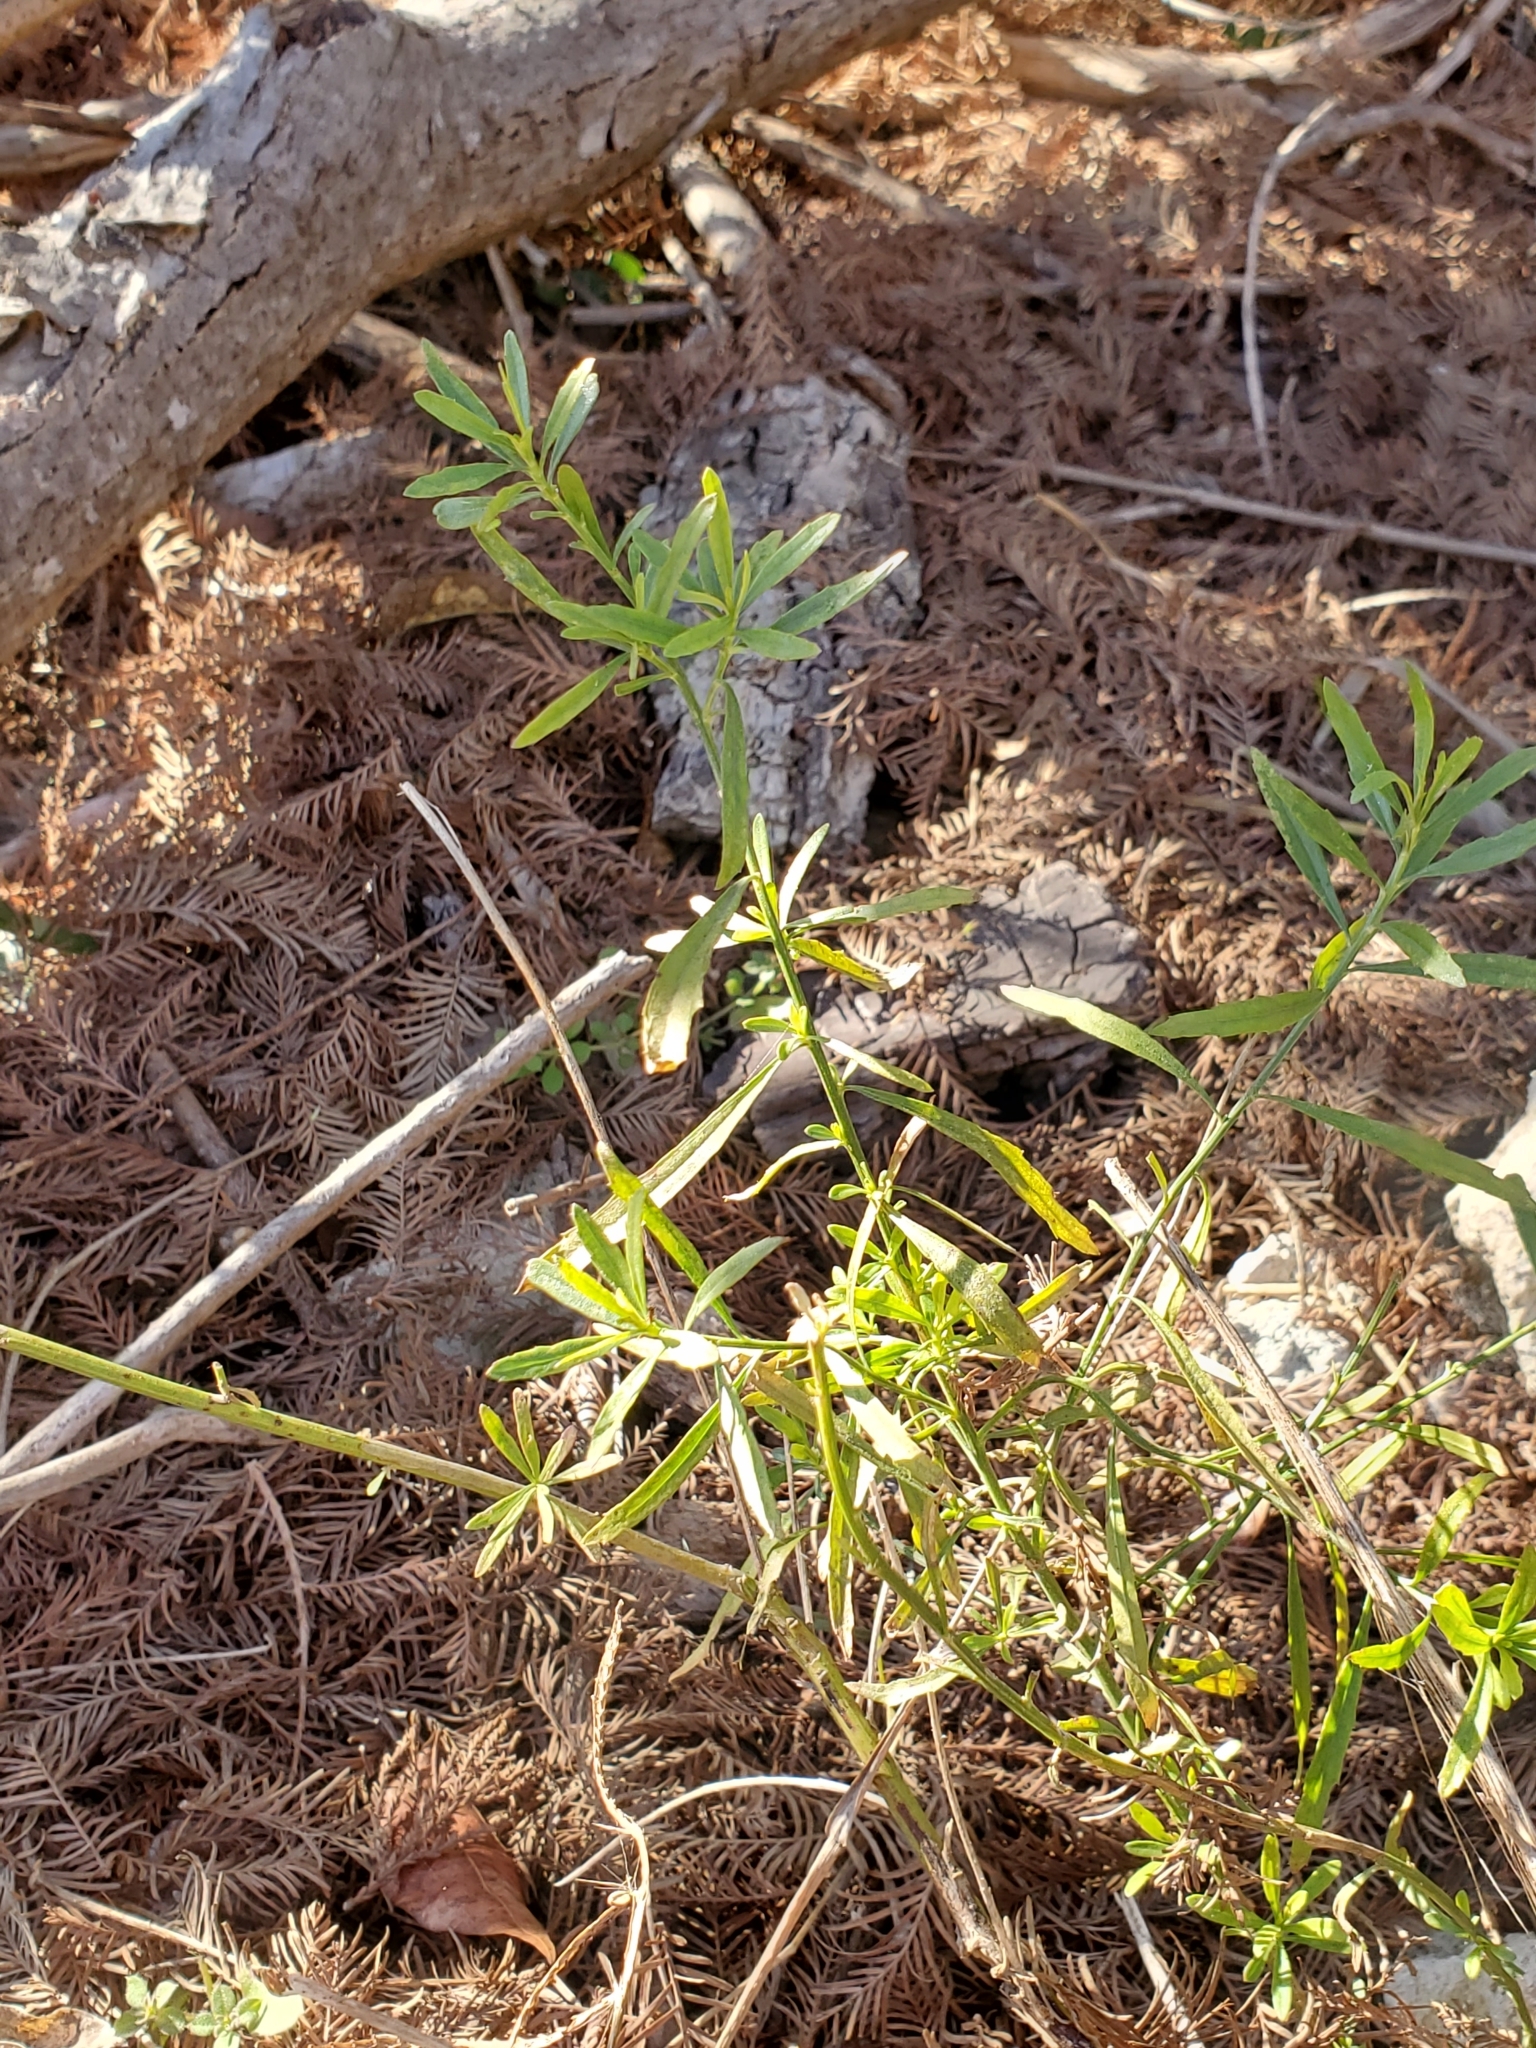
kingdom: Plantae
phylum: Tracheophyta
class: Magnoliopsida
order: Asterales
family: Asteraceae
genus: Baccharis
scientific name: Baccharis neglecta
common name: Roosevelt-weed
